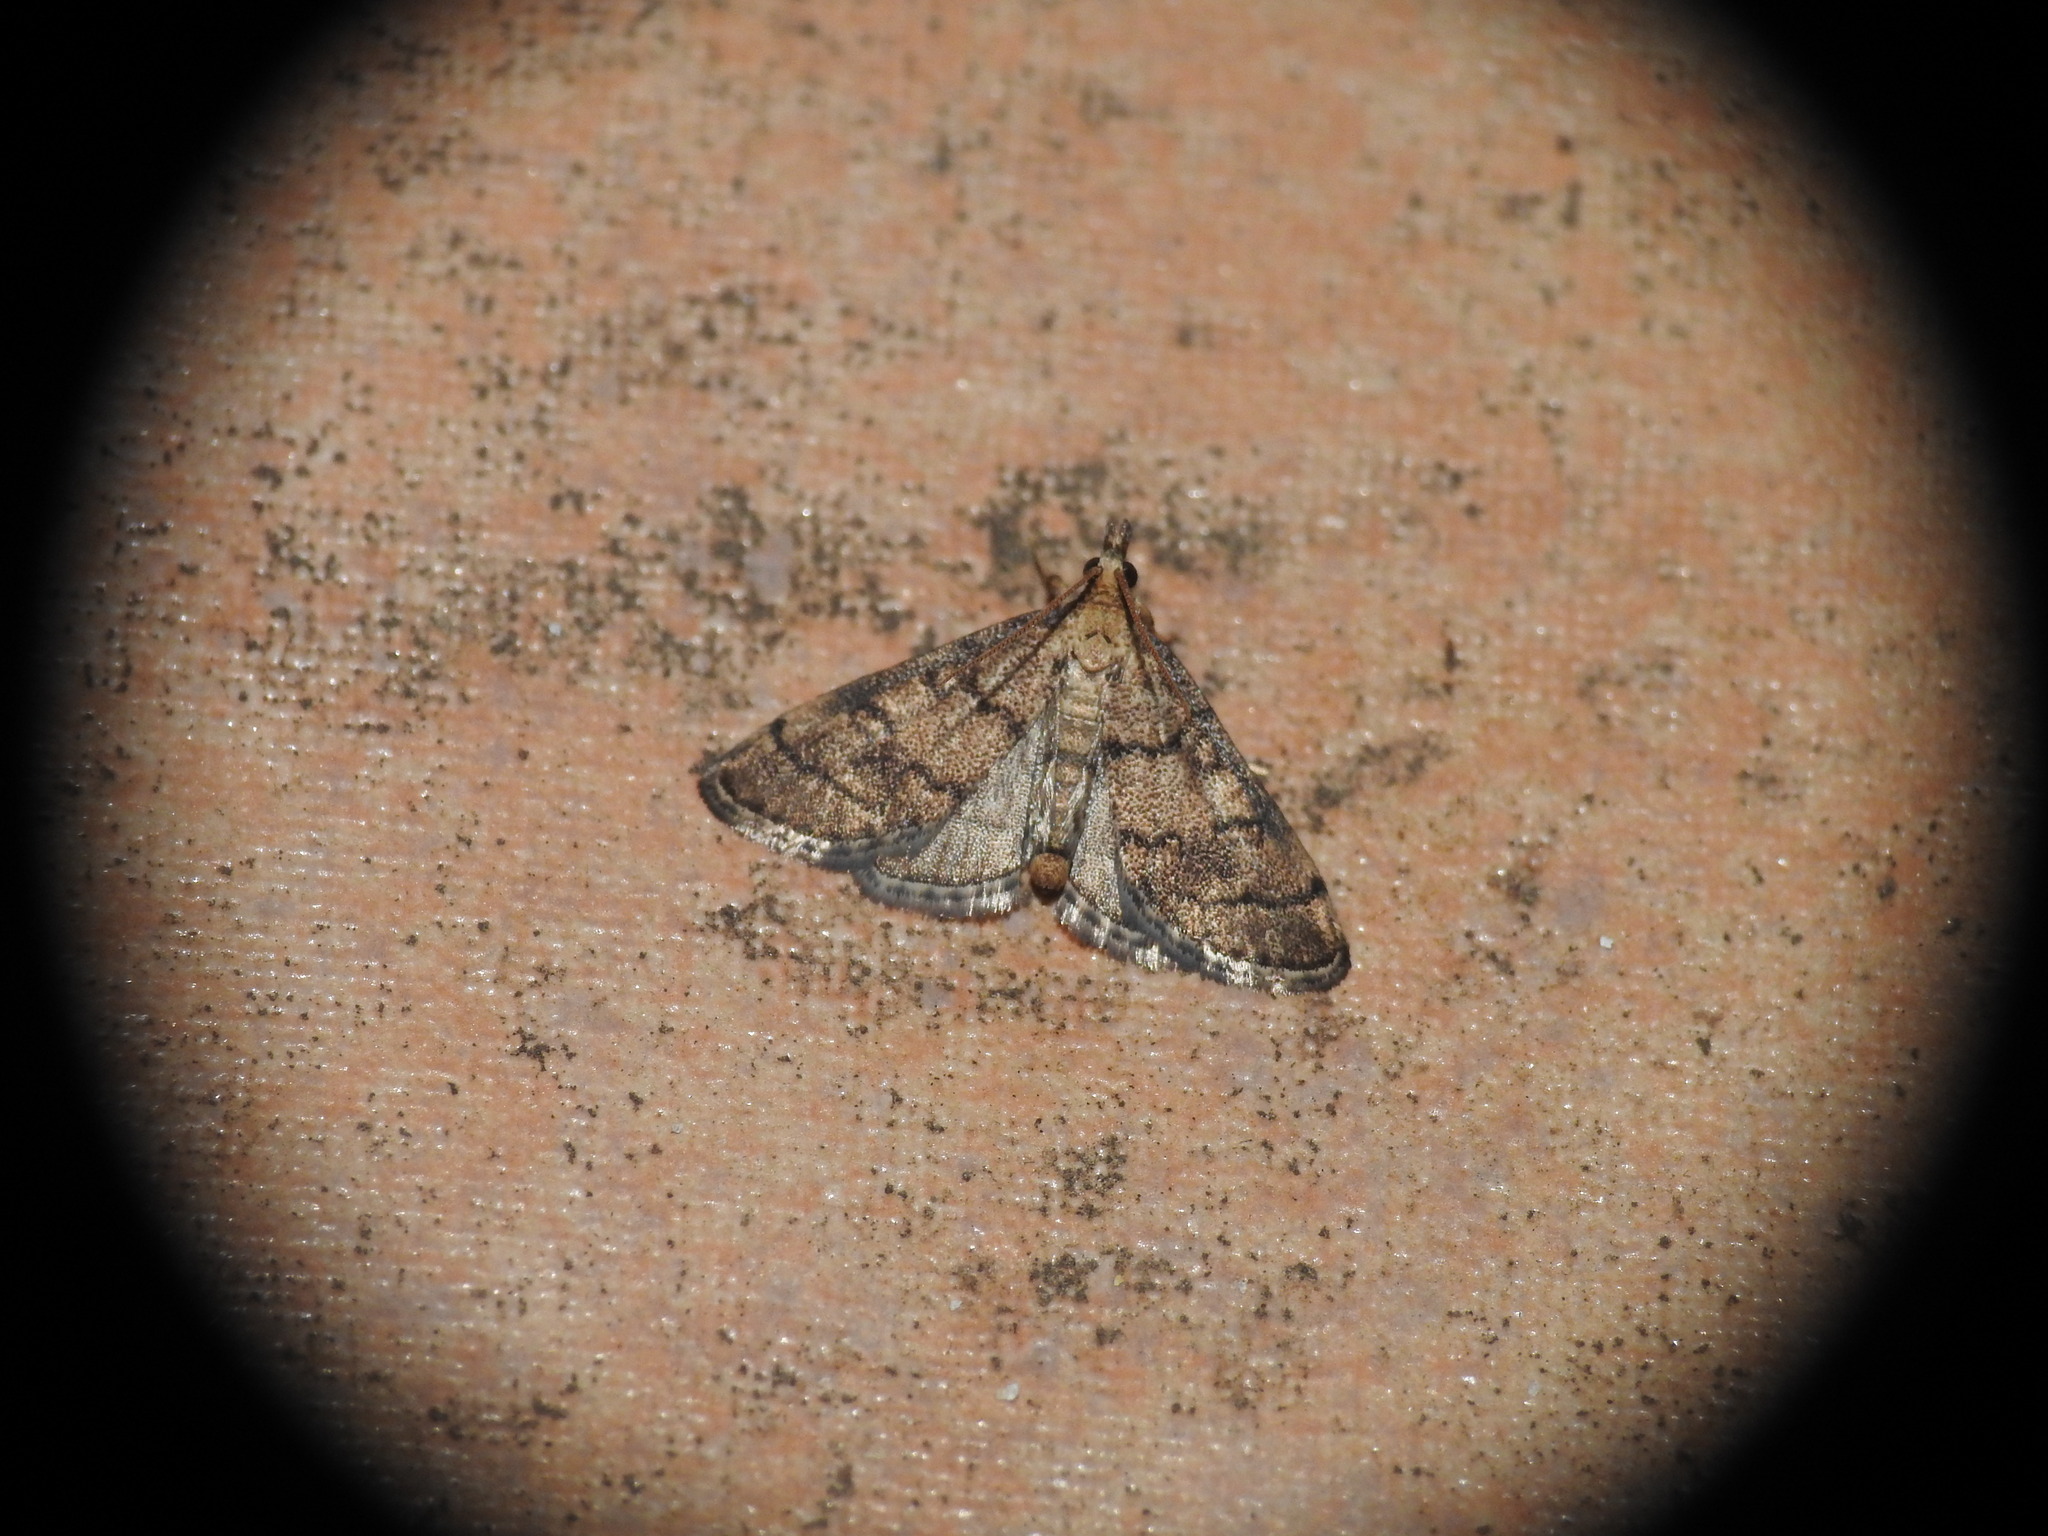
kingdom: Animalia
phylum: Arthropoda
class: Insecta
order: Lepidoptera
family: Crambidae
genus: Metasia
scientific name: Metasia cuencalis
